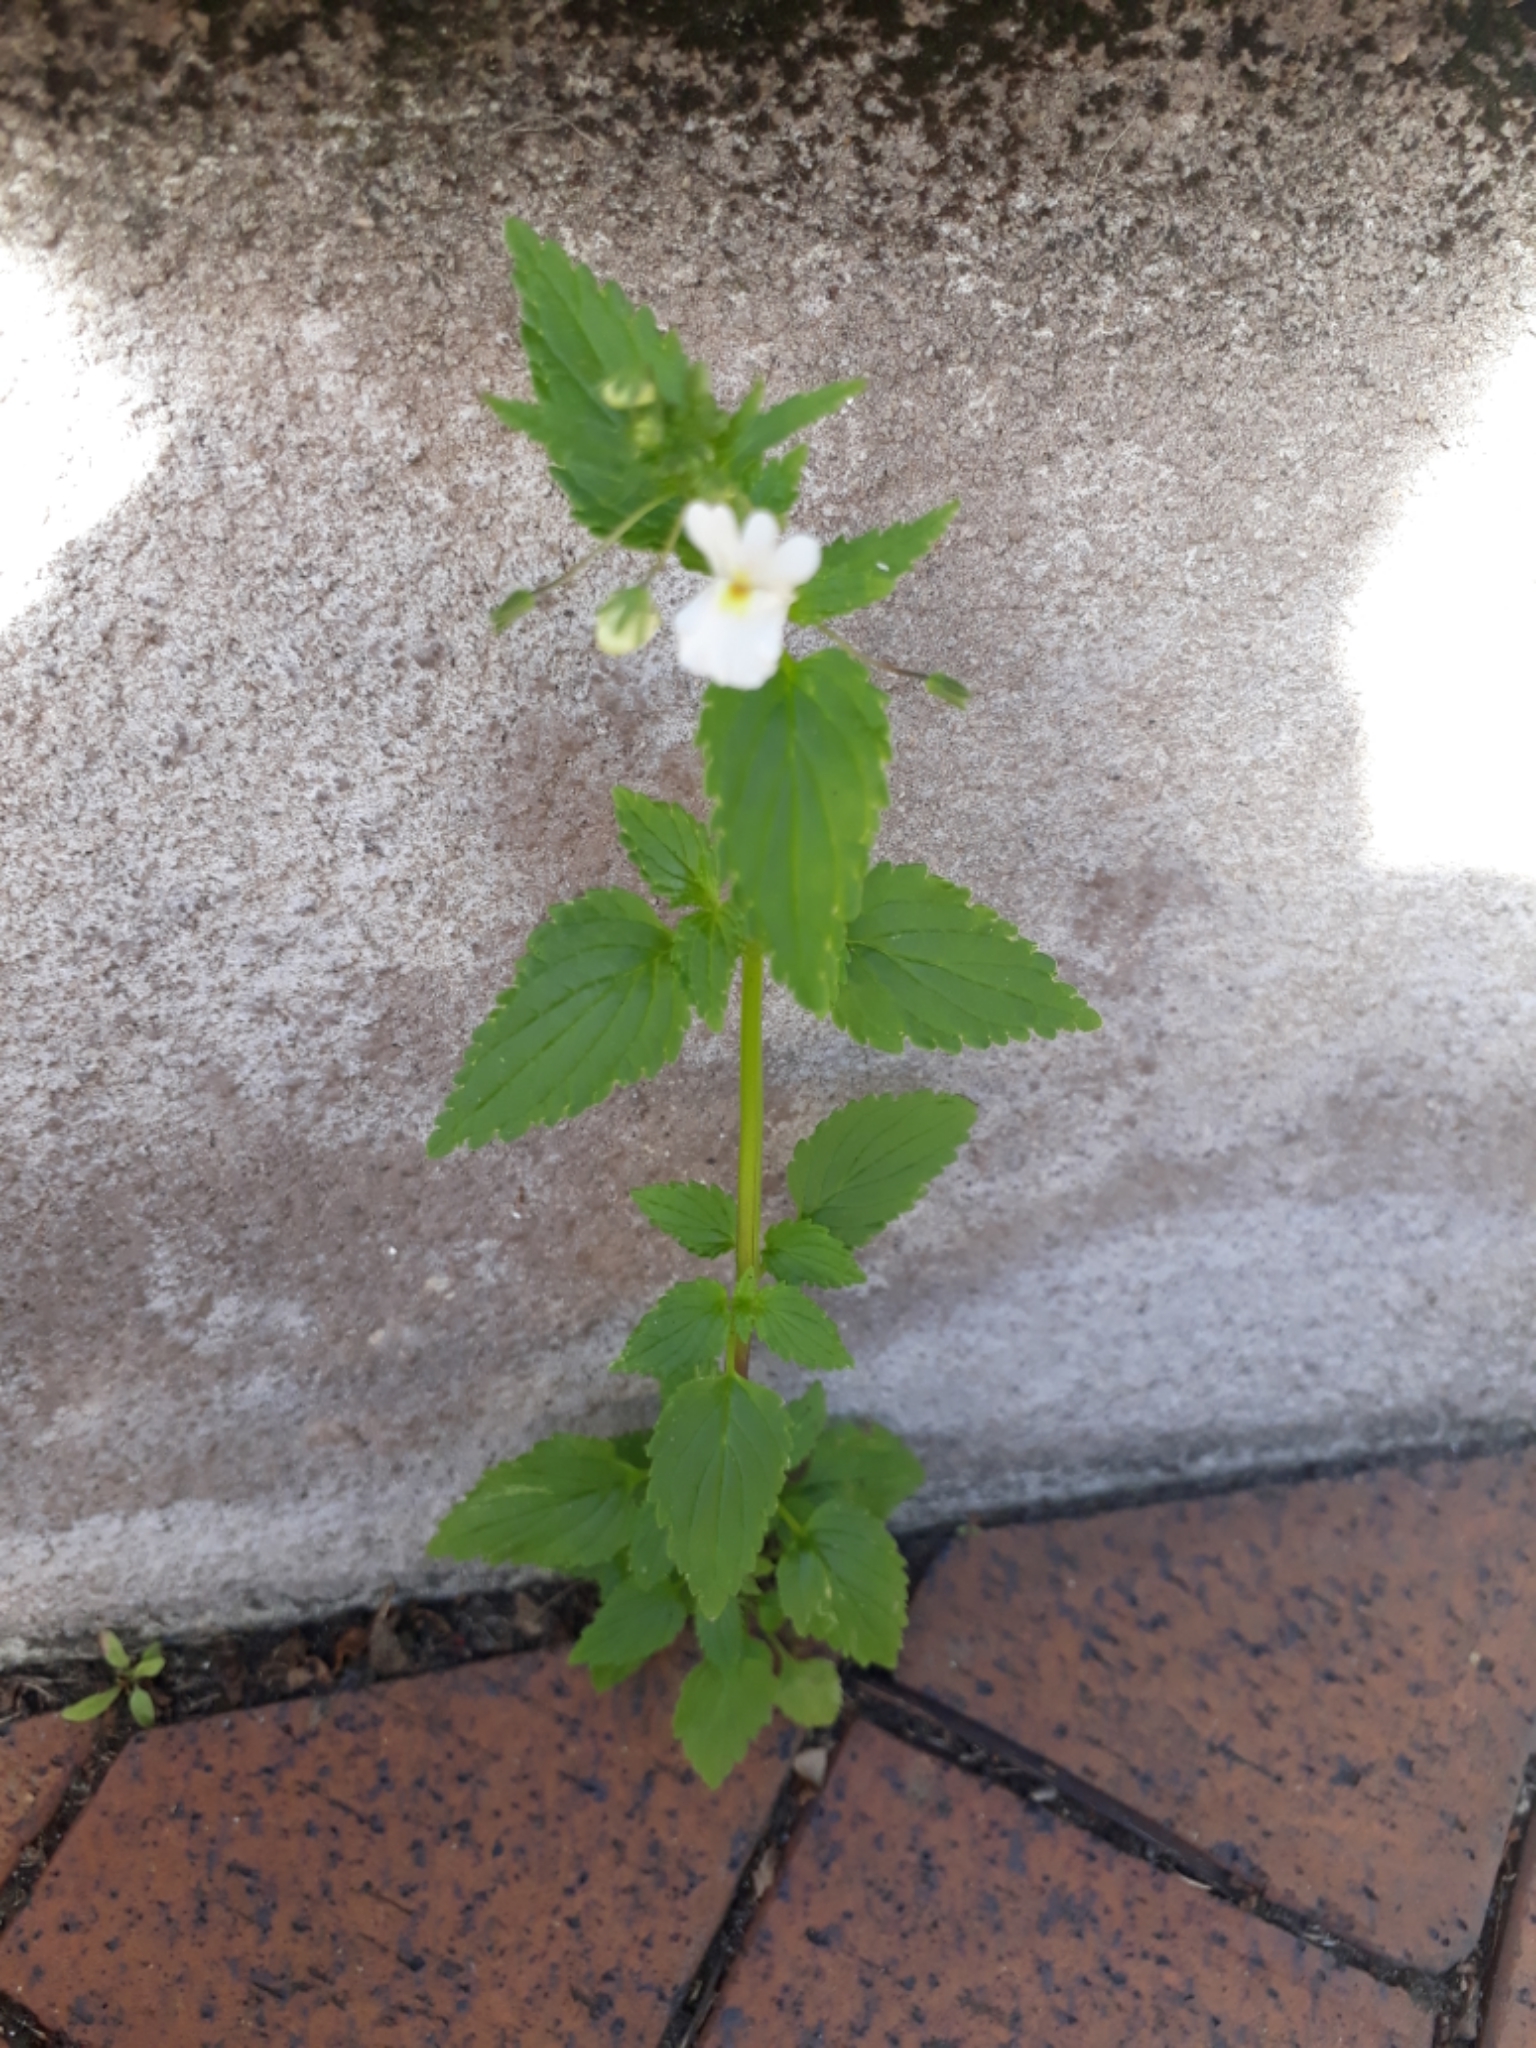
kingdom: Plantae
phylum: Tracheophyta
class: Magnoliopsida
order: Lamiales
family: Scrophulariaceae
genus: Nemesia
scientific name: Nemesia floribunda
